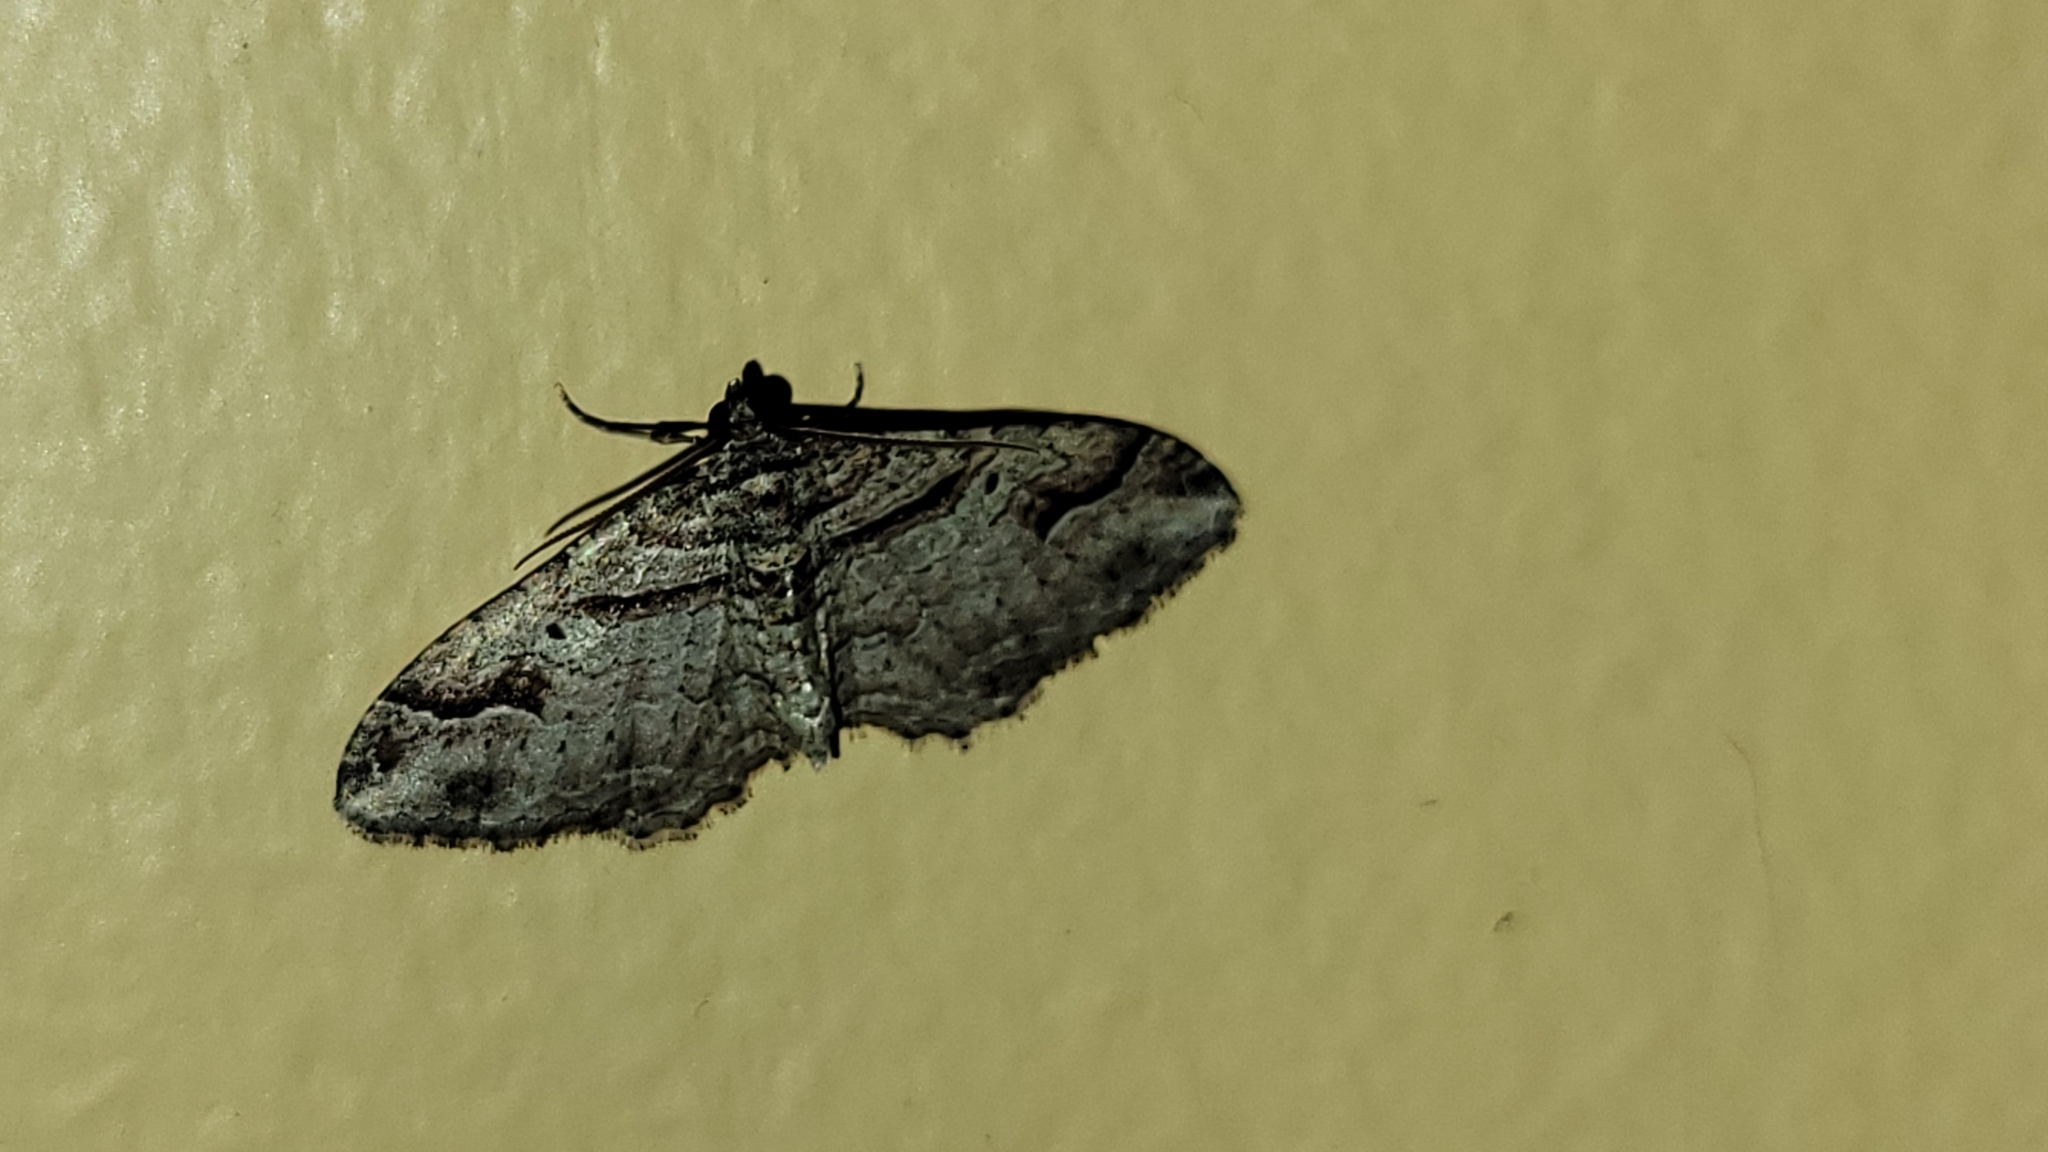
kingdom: Animalia
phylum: Arthropoda
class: Insecta
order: Lepidoptera
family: Geometridae
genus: Costaconvexa
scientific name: Costaconvexa centrostrigaria
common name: Bent-line carpet
